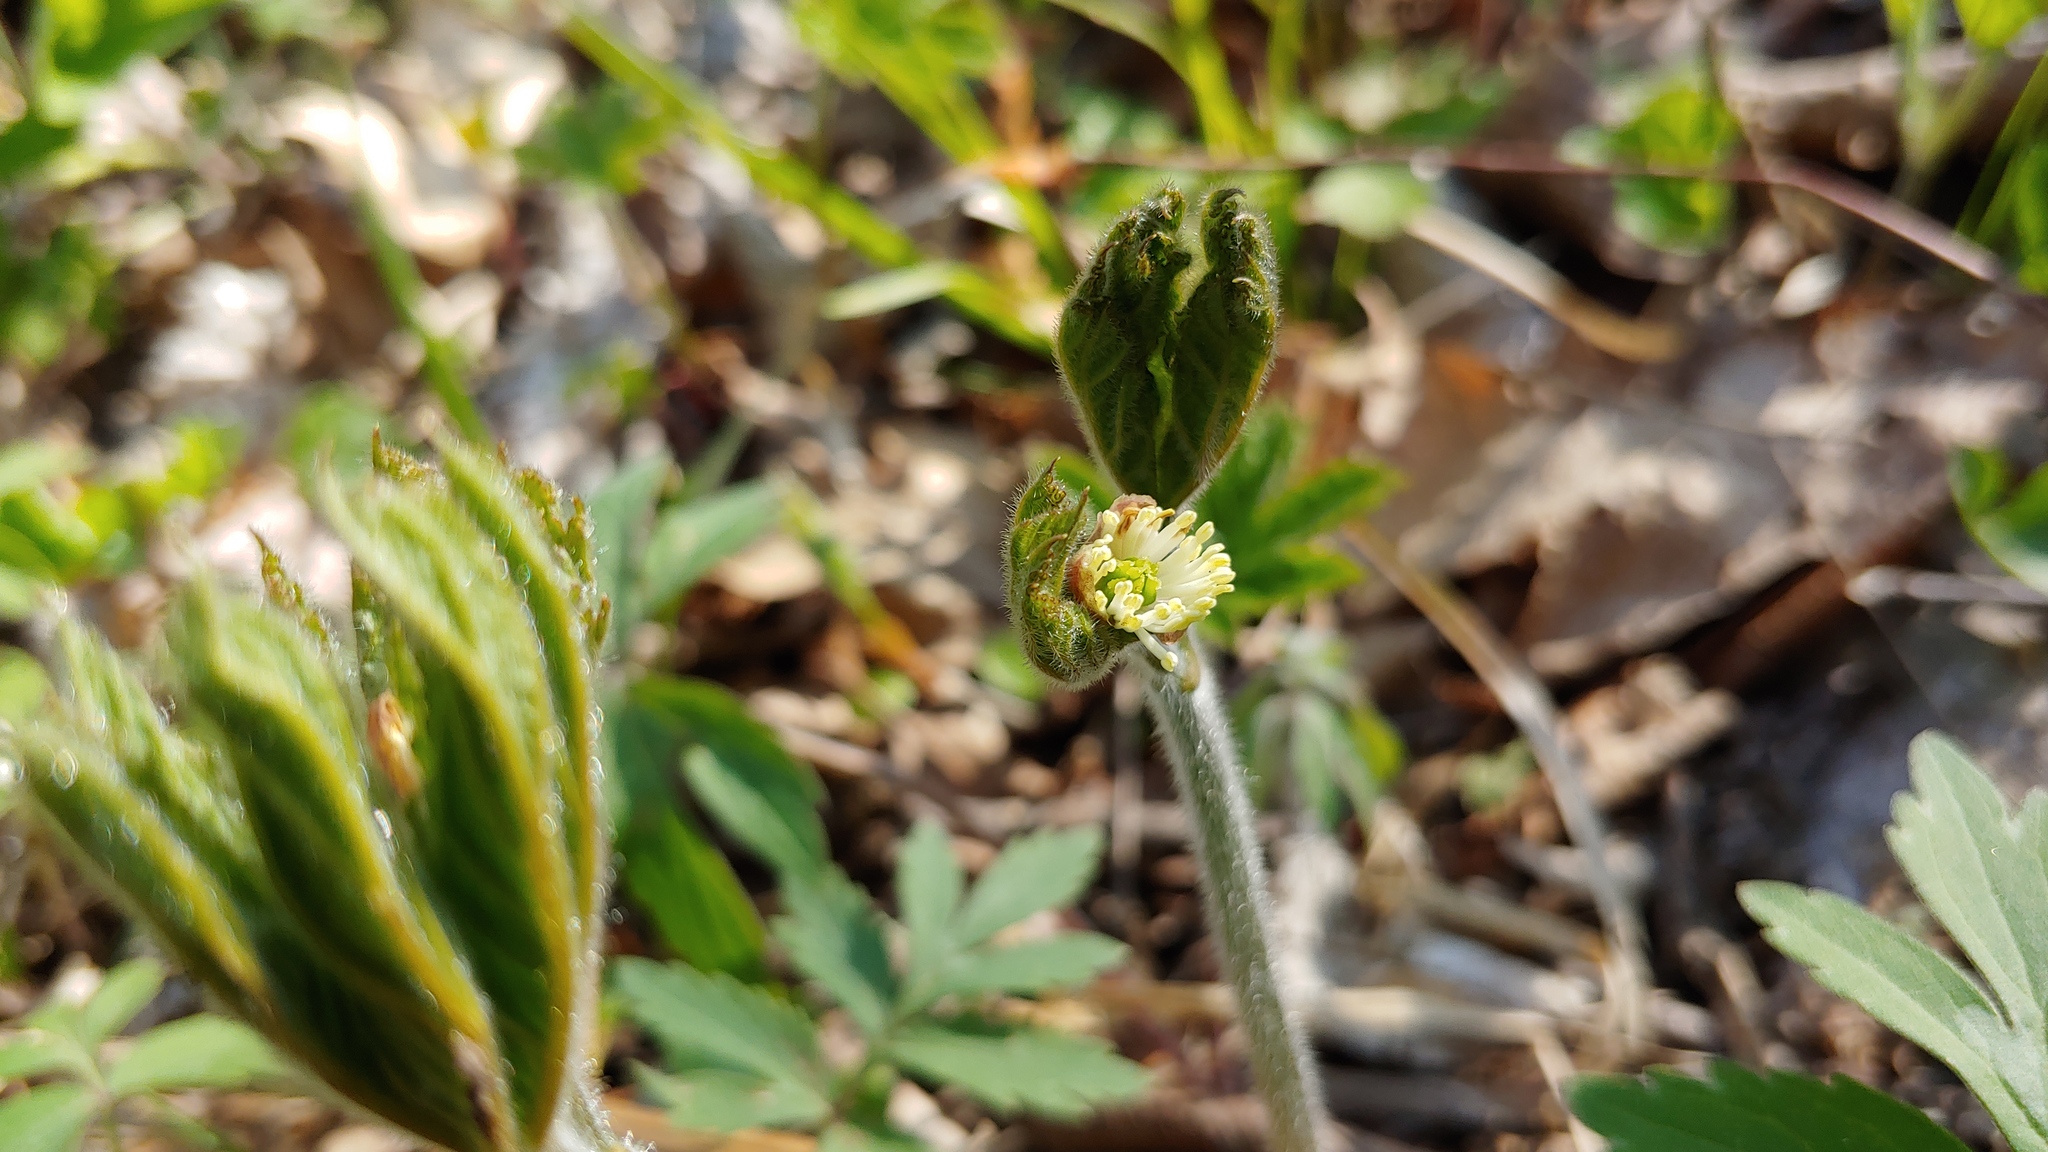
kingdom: Plantae
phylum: Tracheophyta
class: Magnoliopsida
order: Ranunculales
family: Ranunculaceae
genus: Hydrastis
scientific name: Hydrastis canadensis
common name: Goldenseal
